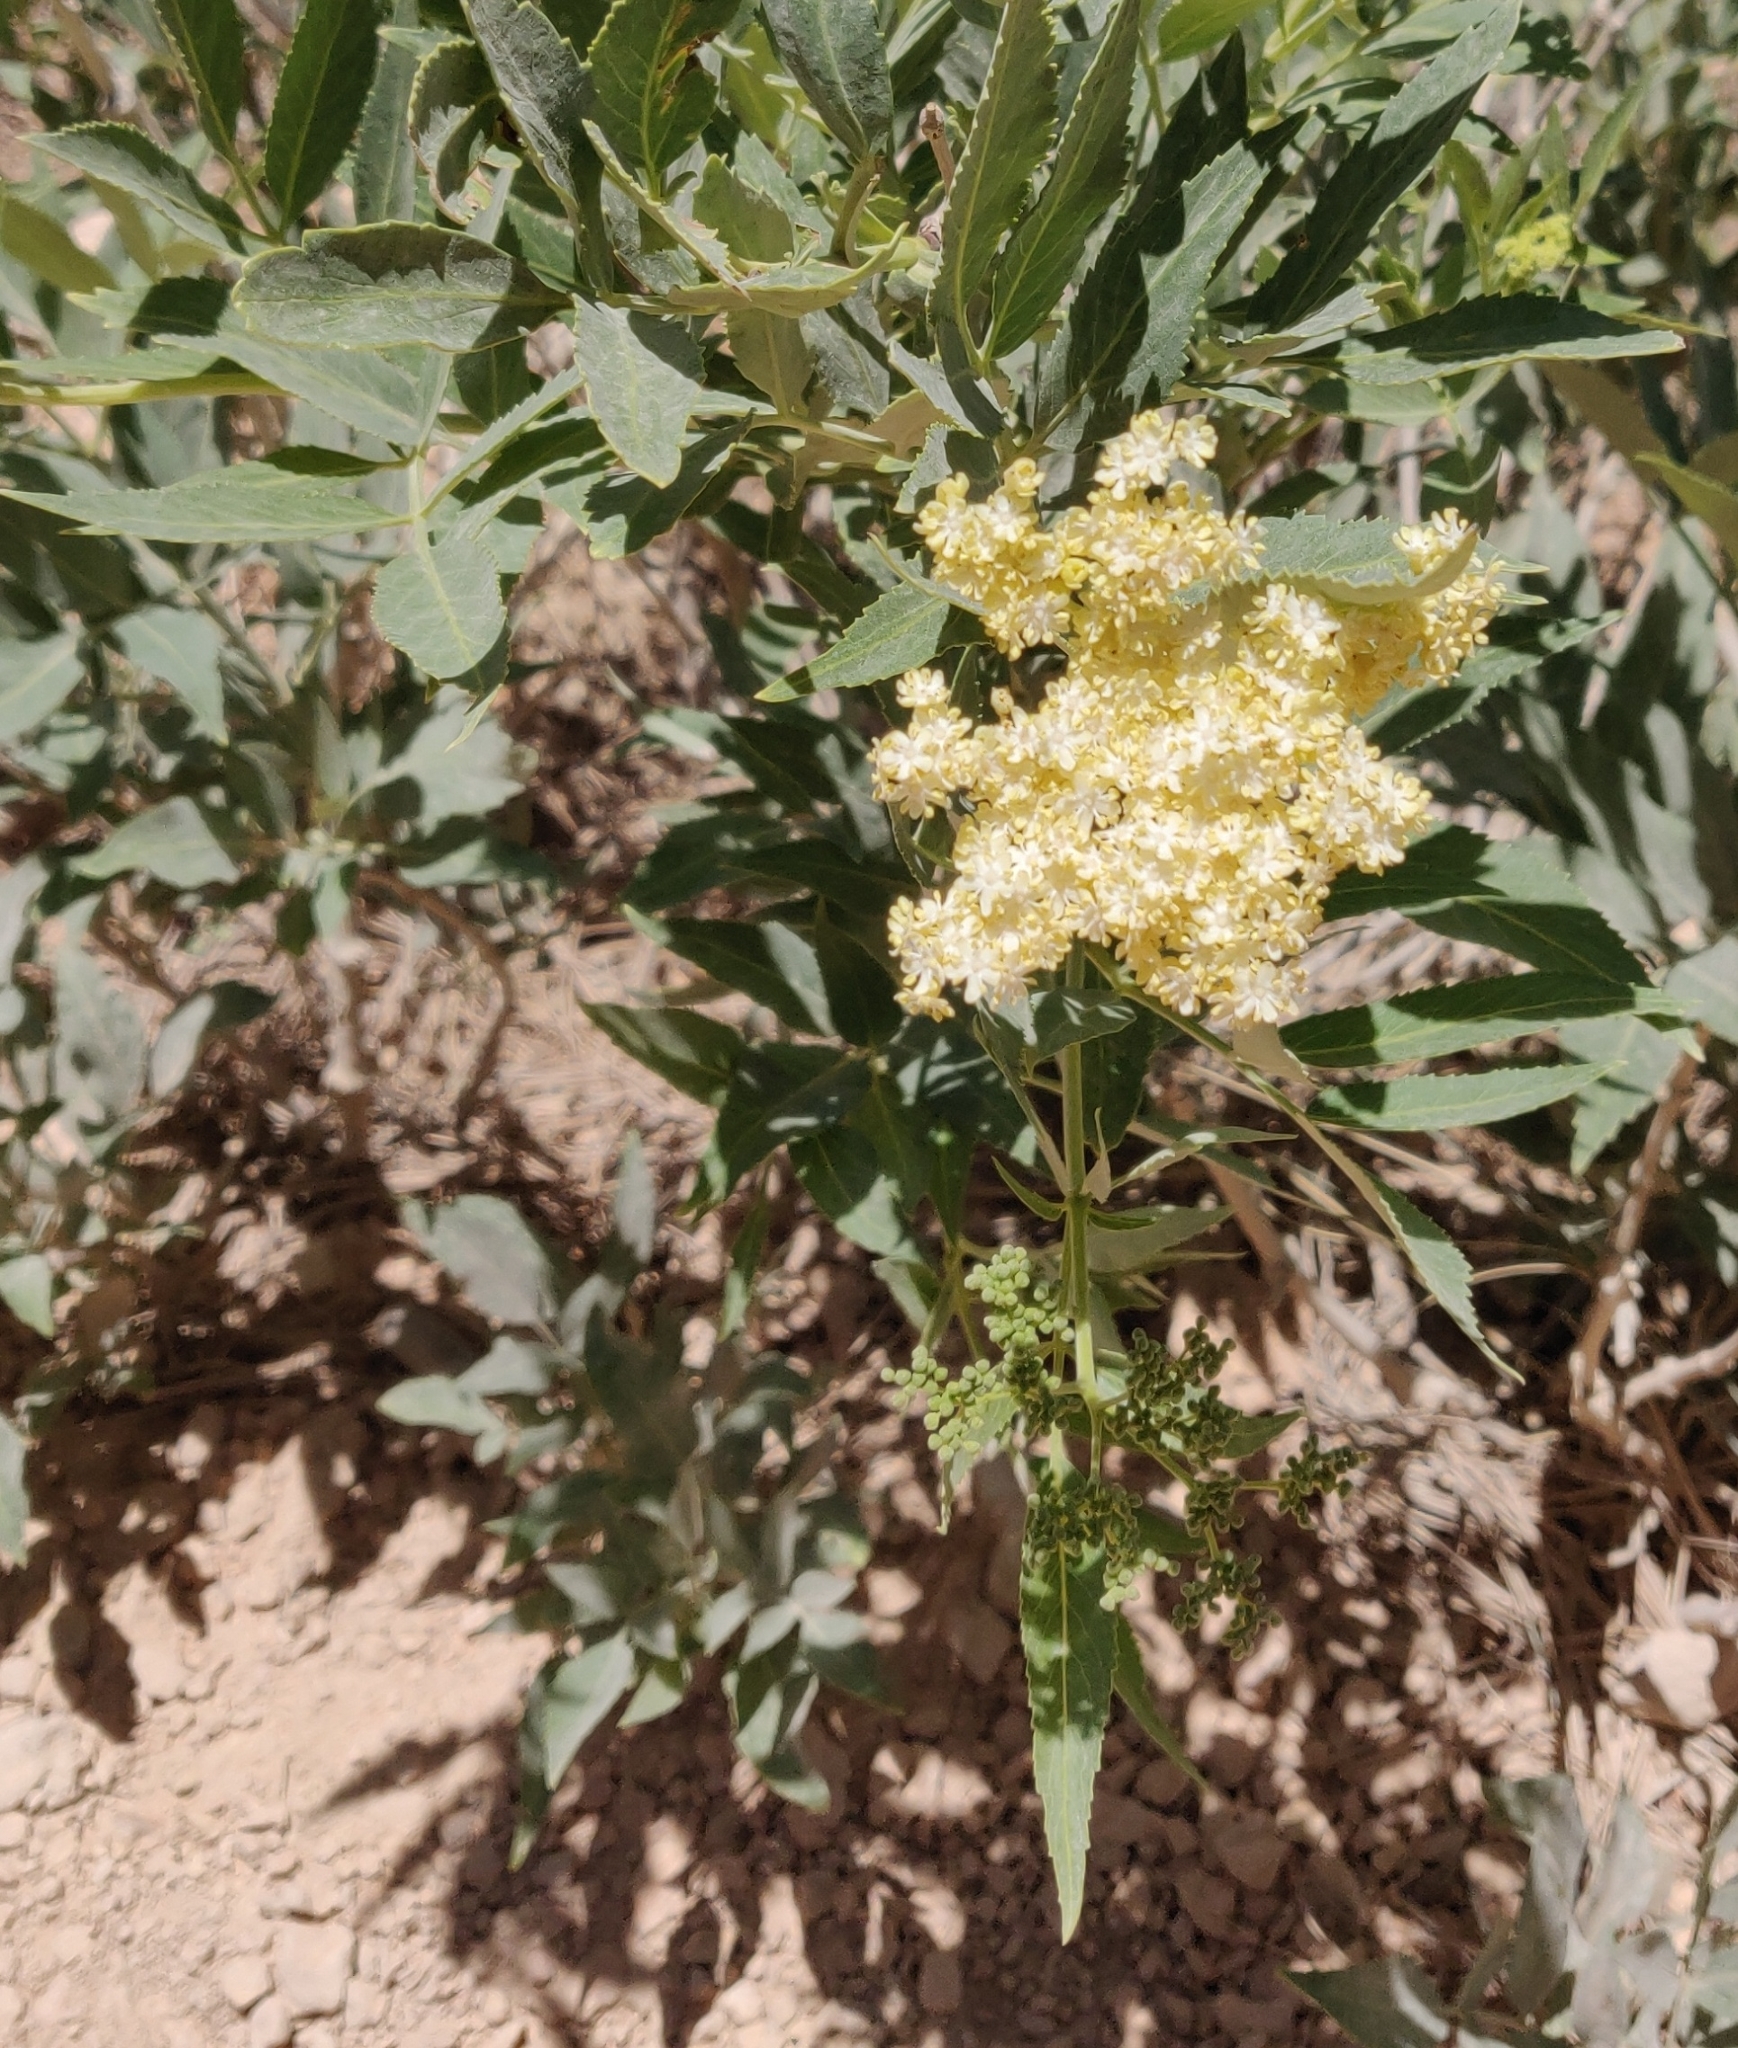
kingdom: Plantae
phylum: Tracheophyta
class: Magnoliopsida
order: Dipsacales
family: Viburnaceae
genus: Sambucus
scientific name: Sambucus cerulea
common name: Blue elder
